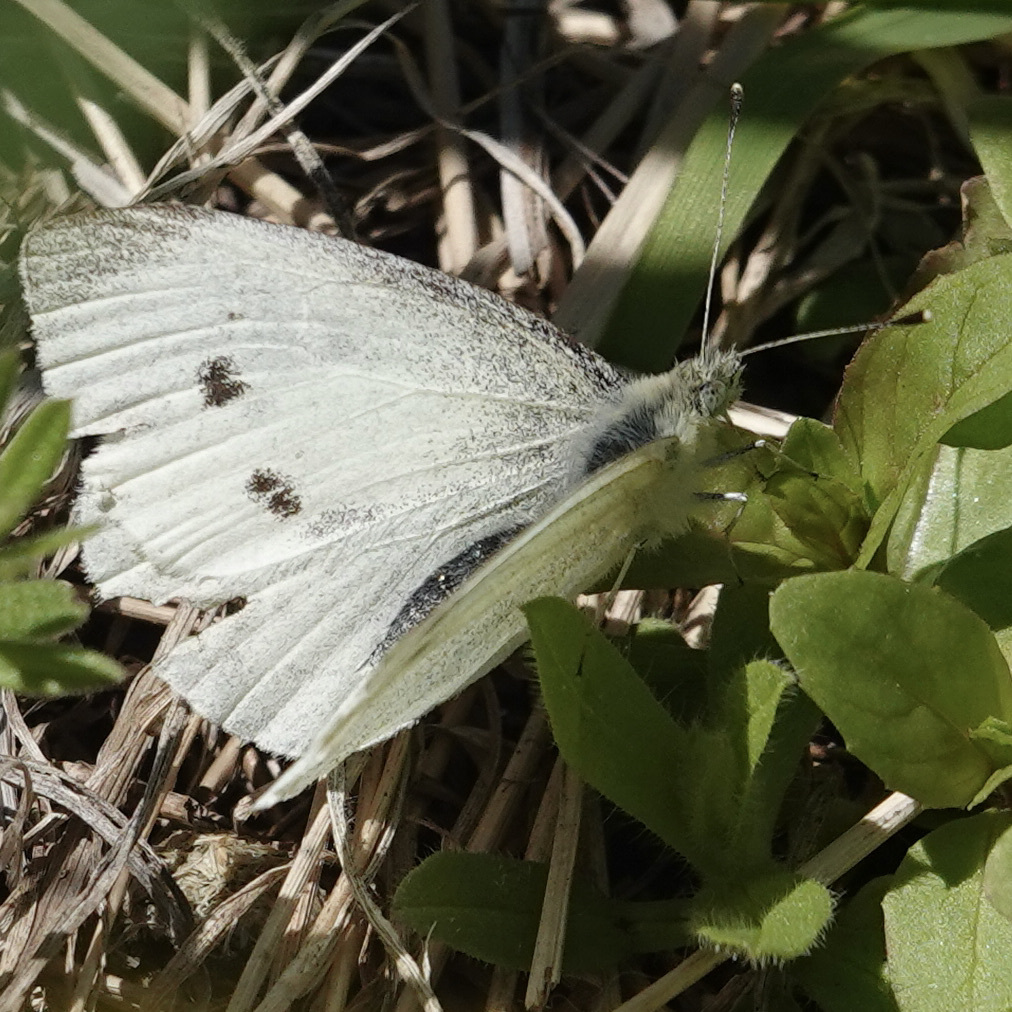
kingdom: Animalia
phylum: Arthropoda
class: Insecta
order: Lepidoptera
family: Pieridae
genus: Pieris
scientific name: Pieris rapae
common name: Small white
